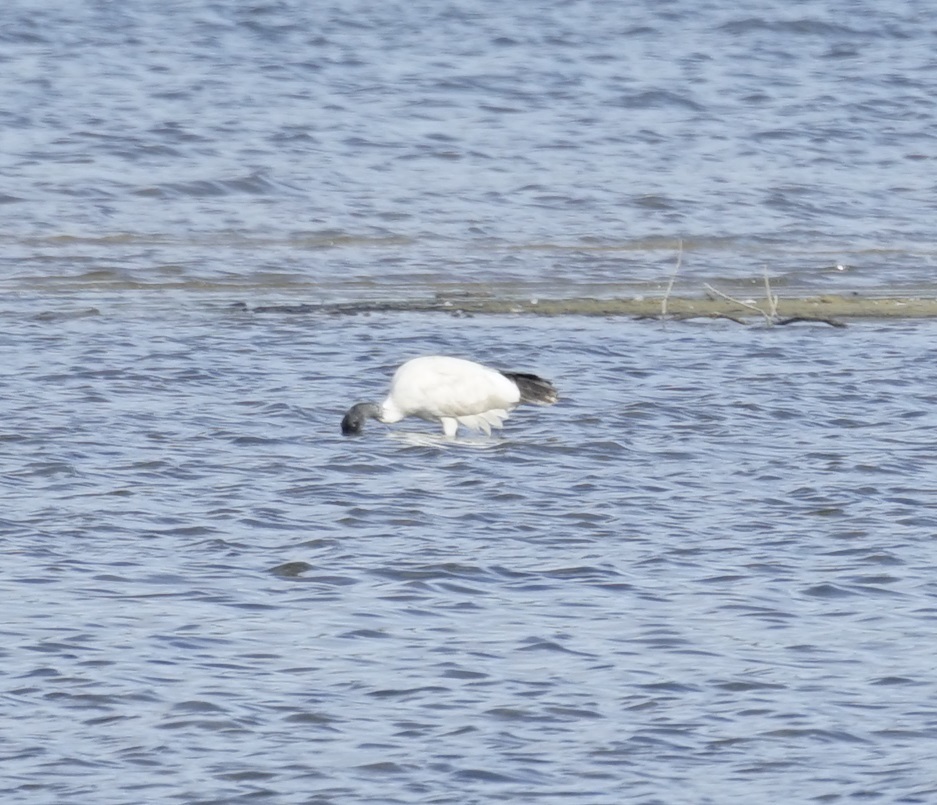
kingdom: Animalia
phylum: Chordata
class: Aves
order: Pelecaniformes
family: Threskiornithidae
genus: Threskiornis
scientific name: Threskiornis molucca
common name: Australian white ibis
